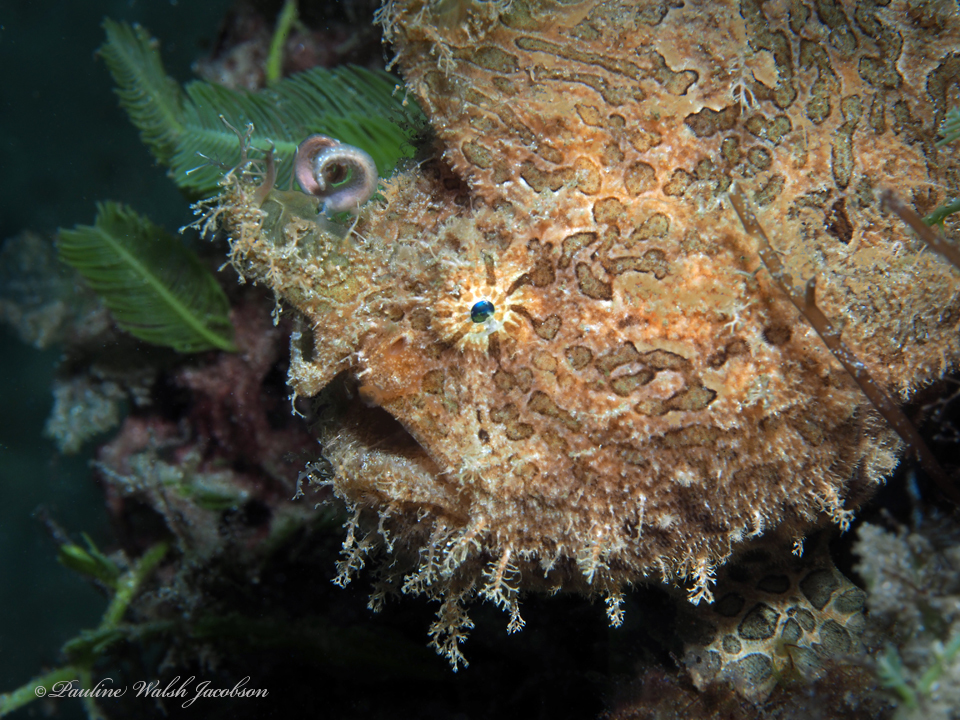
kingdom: Animalia
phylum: Chordata
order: Lophiiformes
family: Antennariidae
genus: Antennarius
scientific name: Antennarius striatus
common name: Striated frogfish
